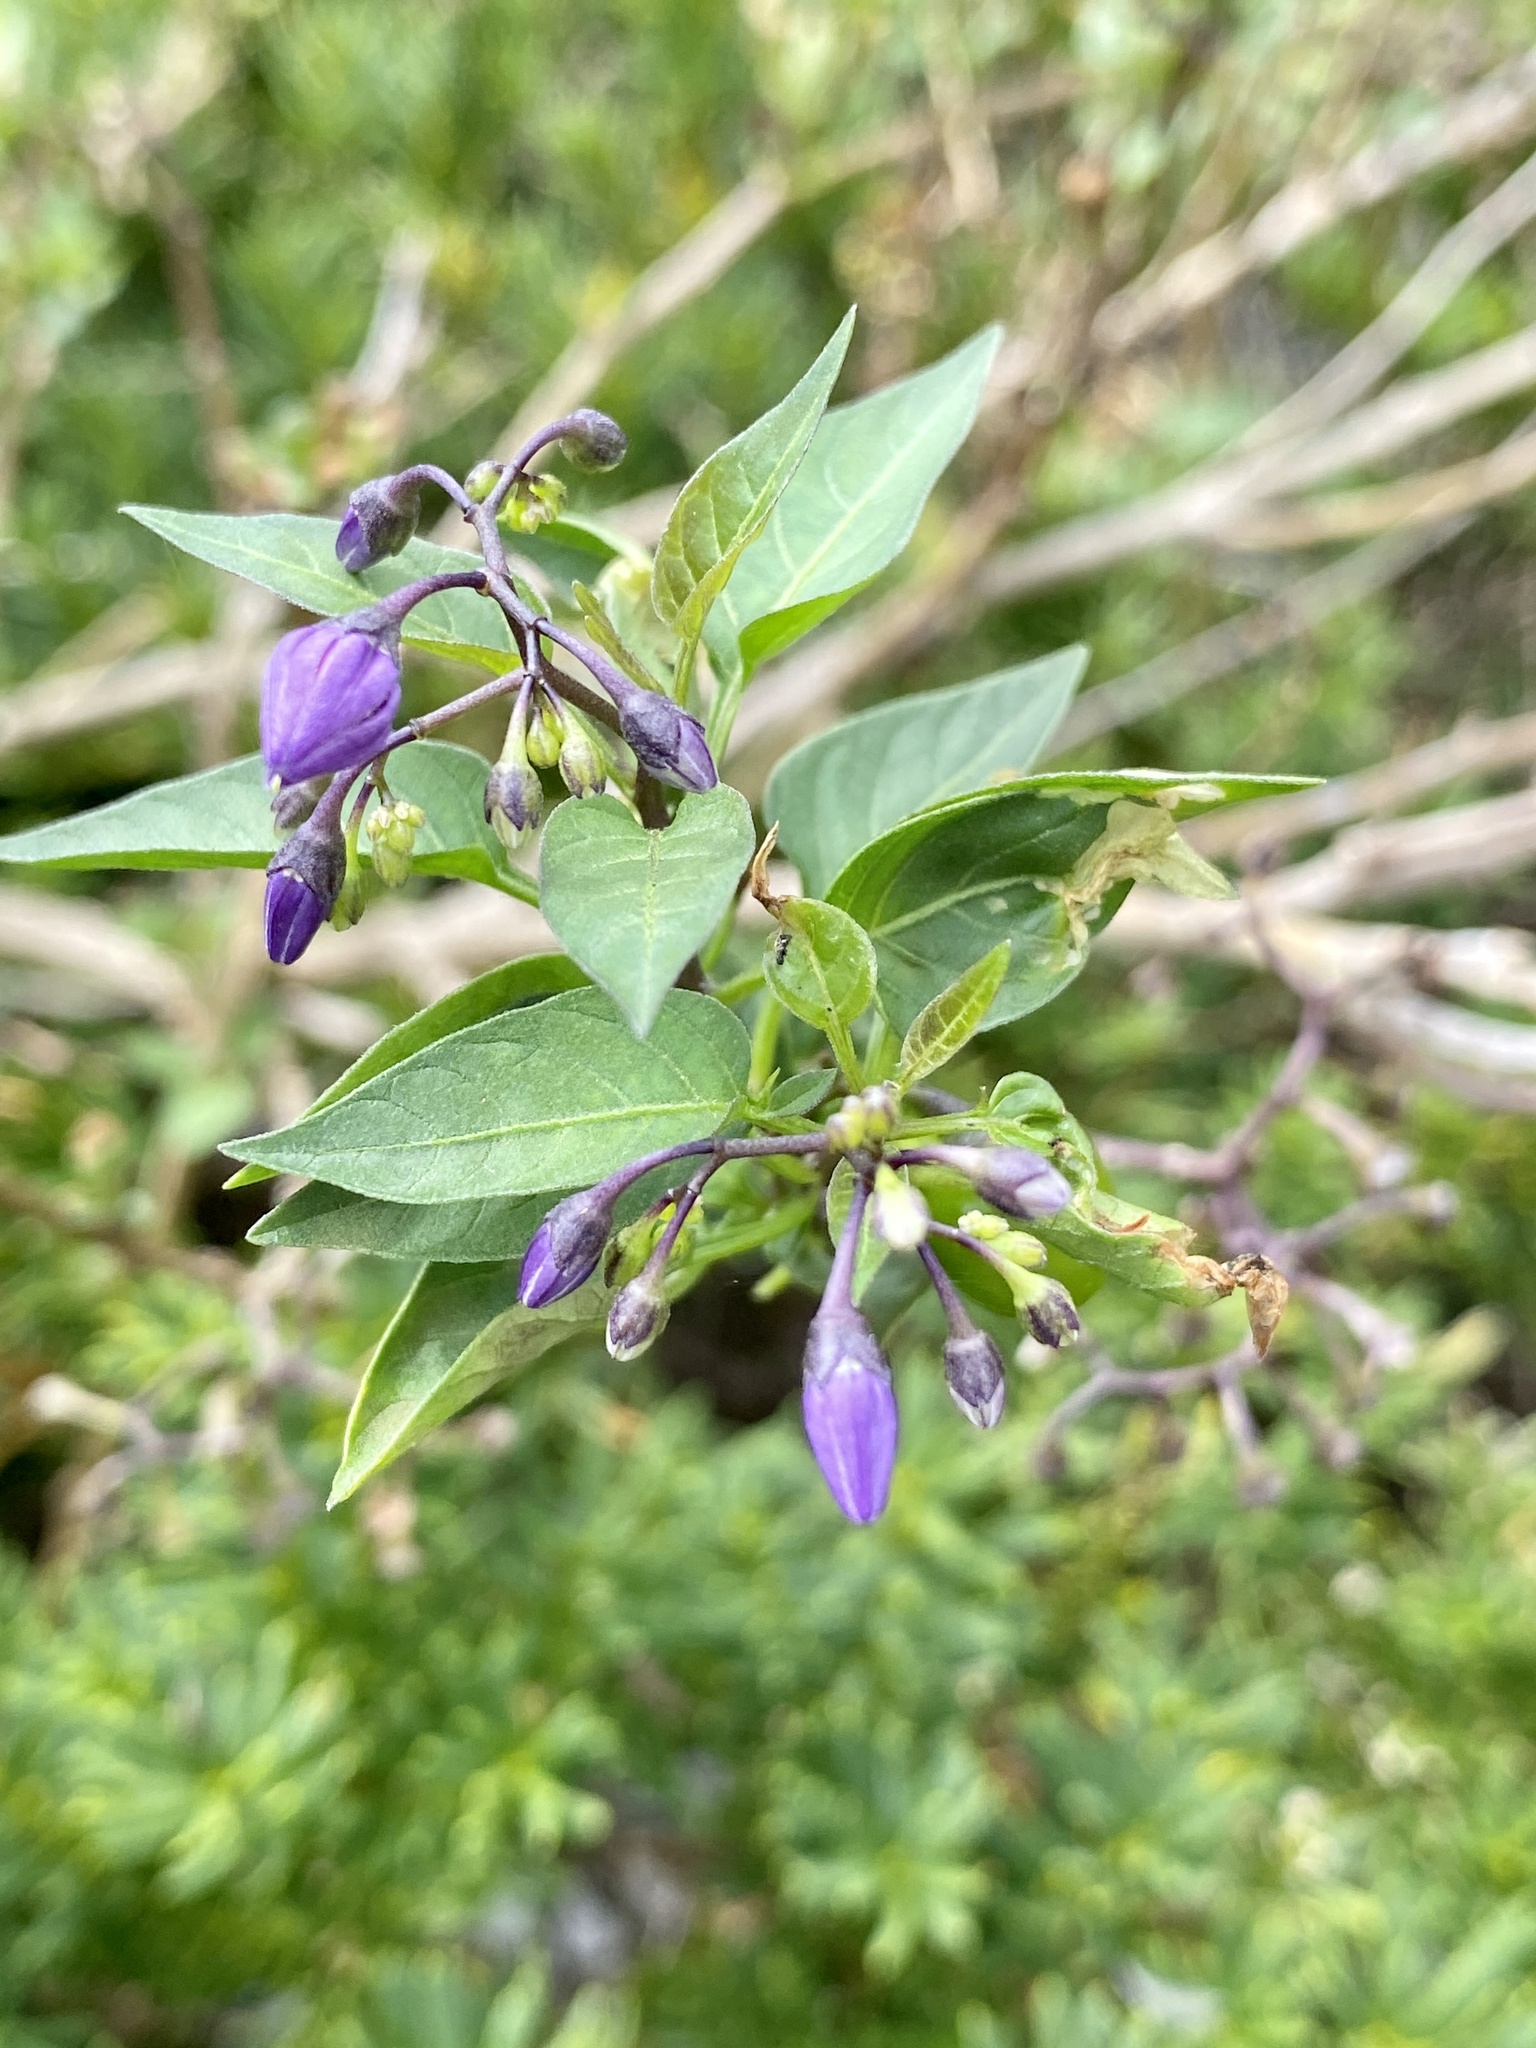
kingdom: Plantae
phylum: Tracheophyta
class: Magnoliopsida
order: Solanales
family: Solanaceae
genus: Solanum
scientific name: Solanum dulcamara
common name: Climbing nightshade
